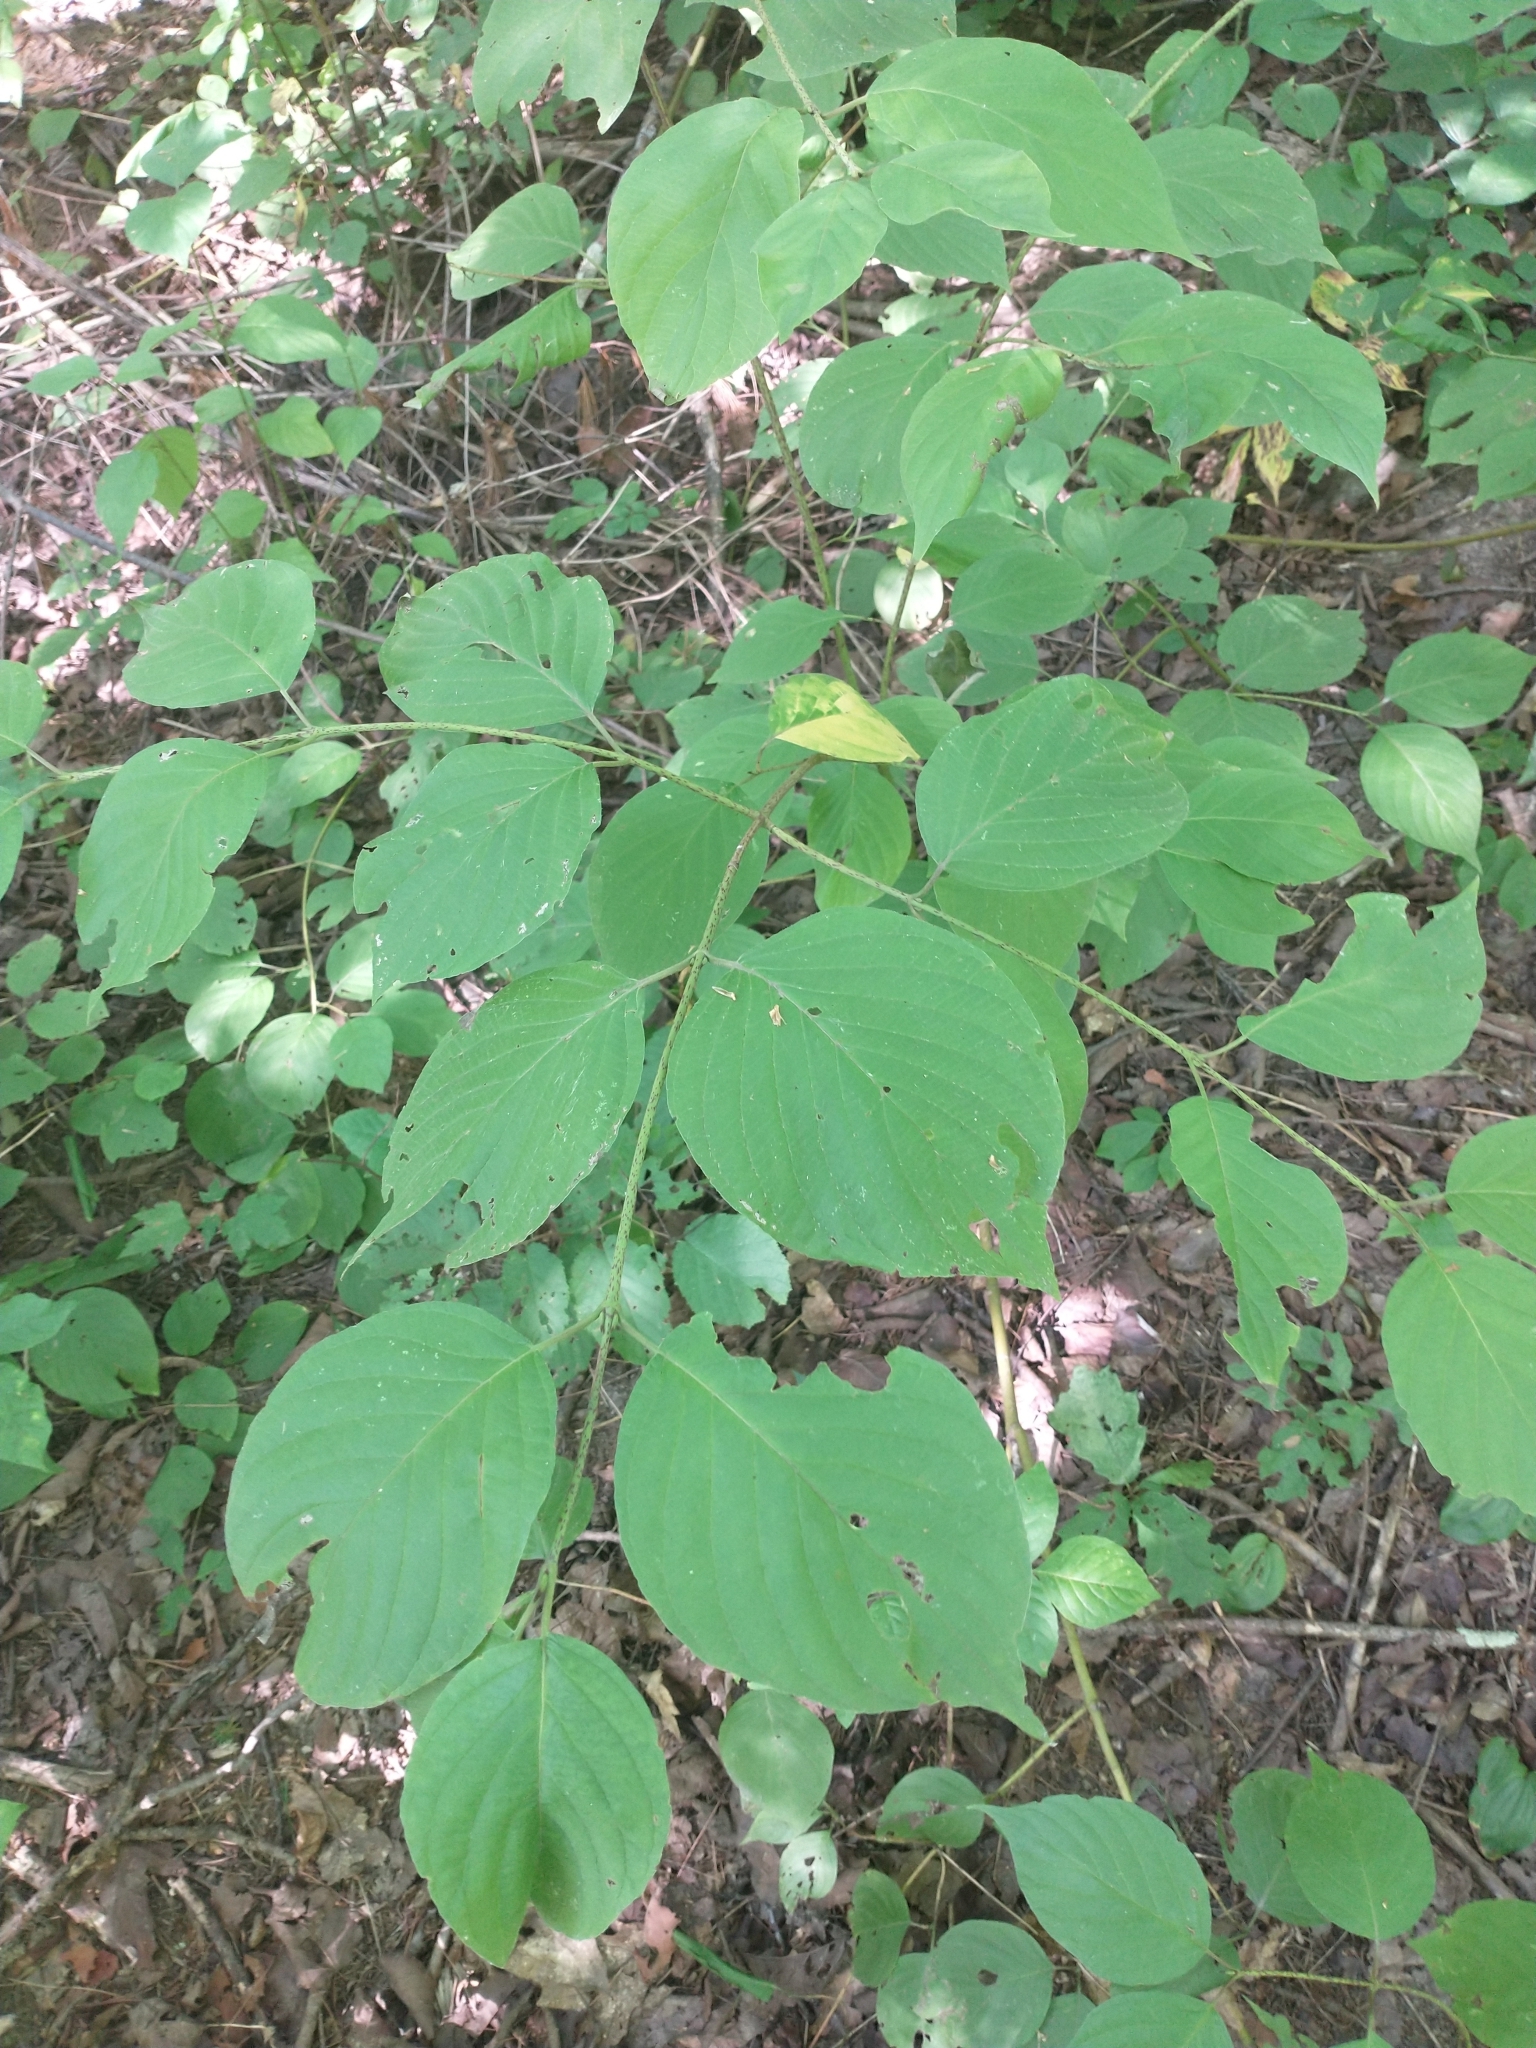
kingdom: Plantae
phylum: Tracheophyta
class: Magnoliopsida
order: Cornales
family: Cornaceae
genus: Cornus
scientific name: Cornus rugosa
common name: Round-leaf dogwood
